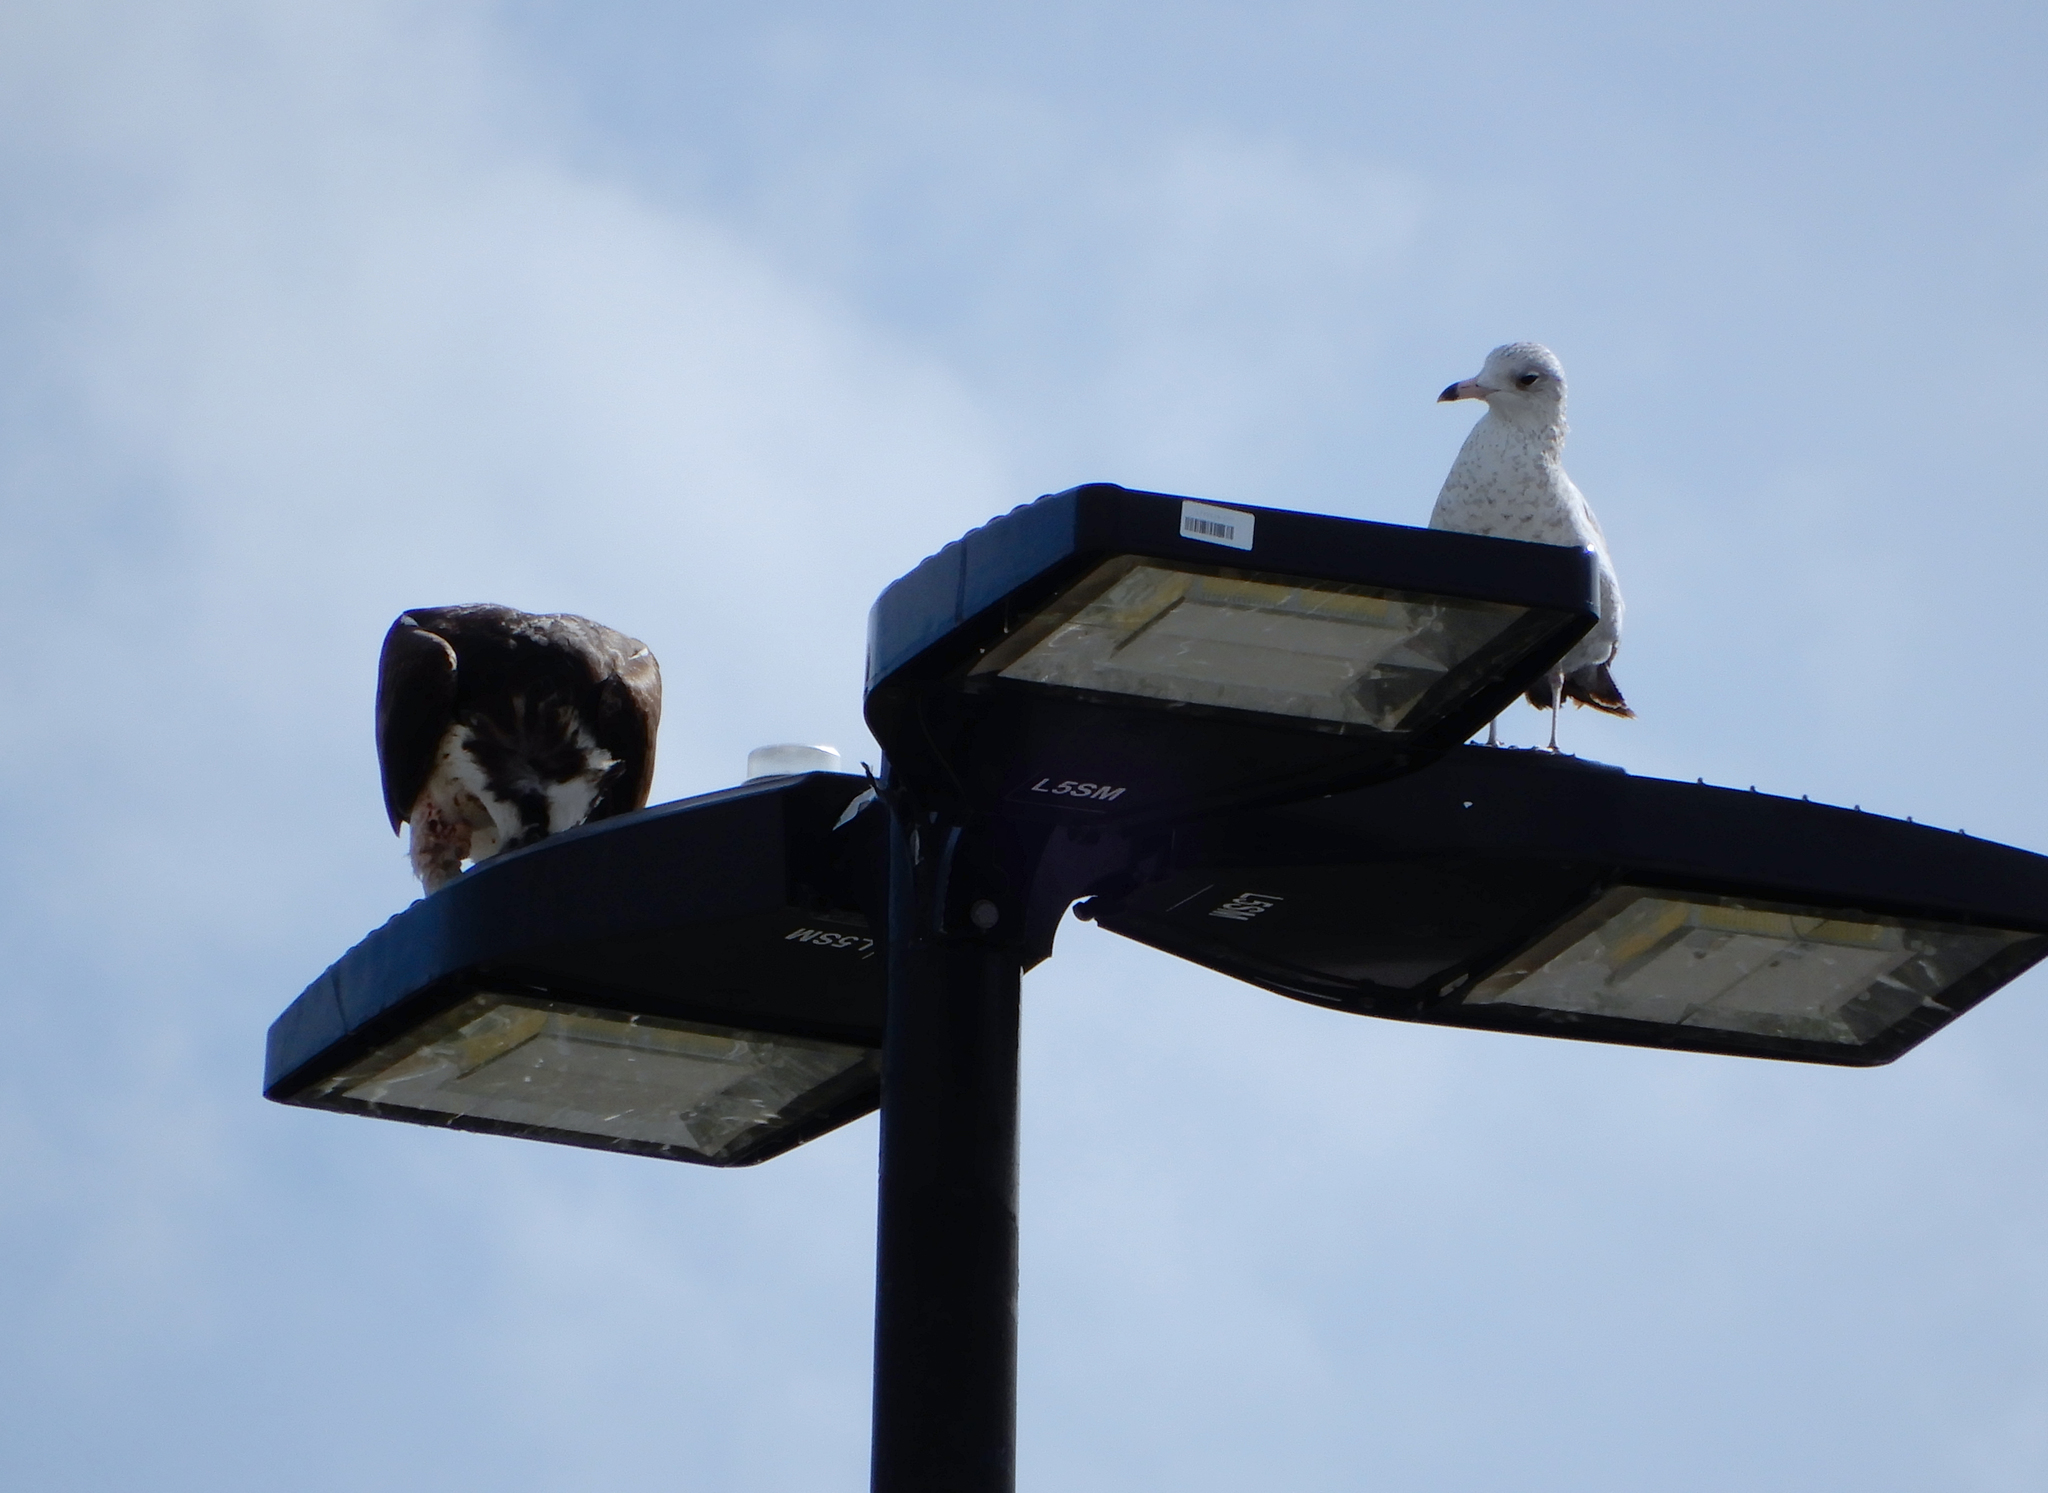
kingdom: Animalia
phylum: Chordata
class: Aves
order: Charadriiformes
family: Laridae
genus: Larus
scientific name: Larus delawarensis
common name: Ring-billed gull
